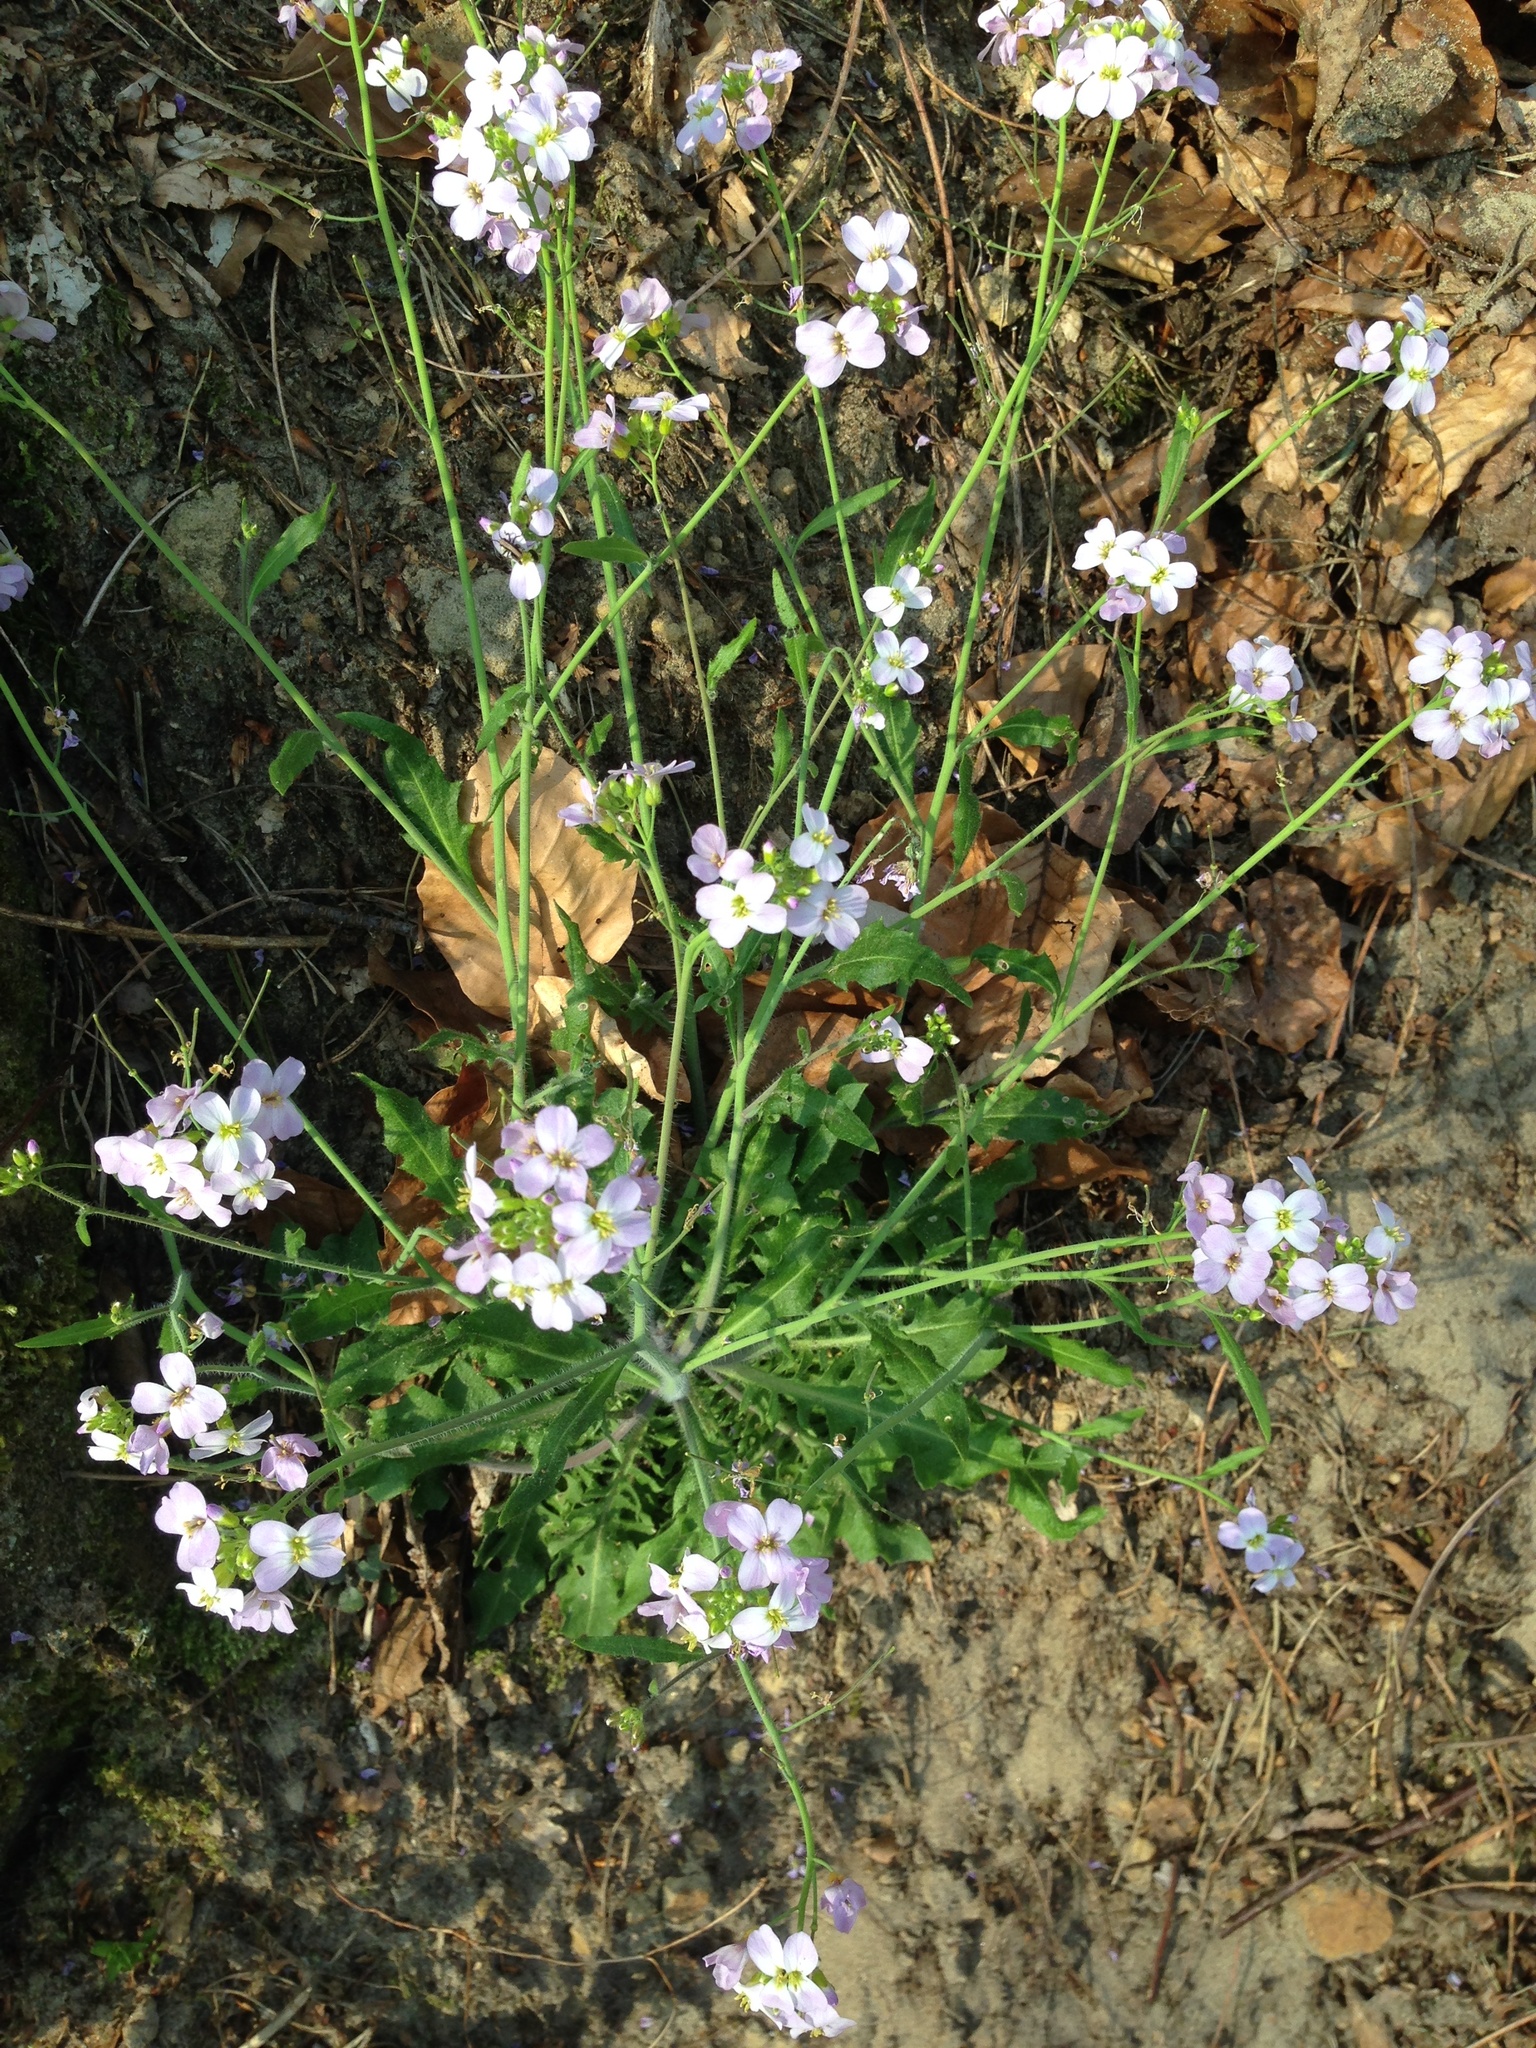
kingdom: Plantae
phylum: Tracheophyta
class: Magnoliopsida
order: Brassicales
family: Brassicaceae
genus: Arabidopsis
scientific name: Arabidopsis arenosa
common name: Sand rock-cress
